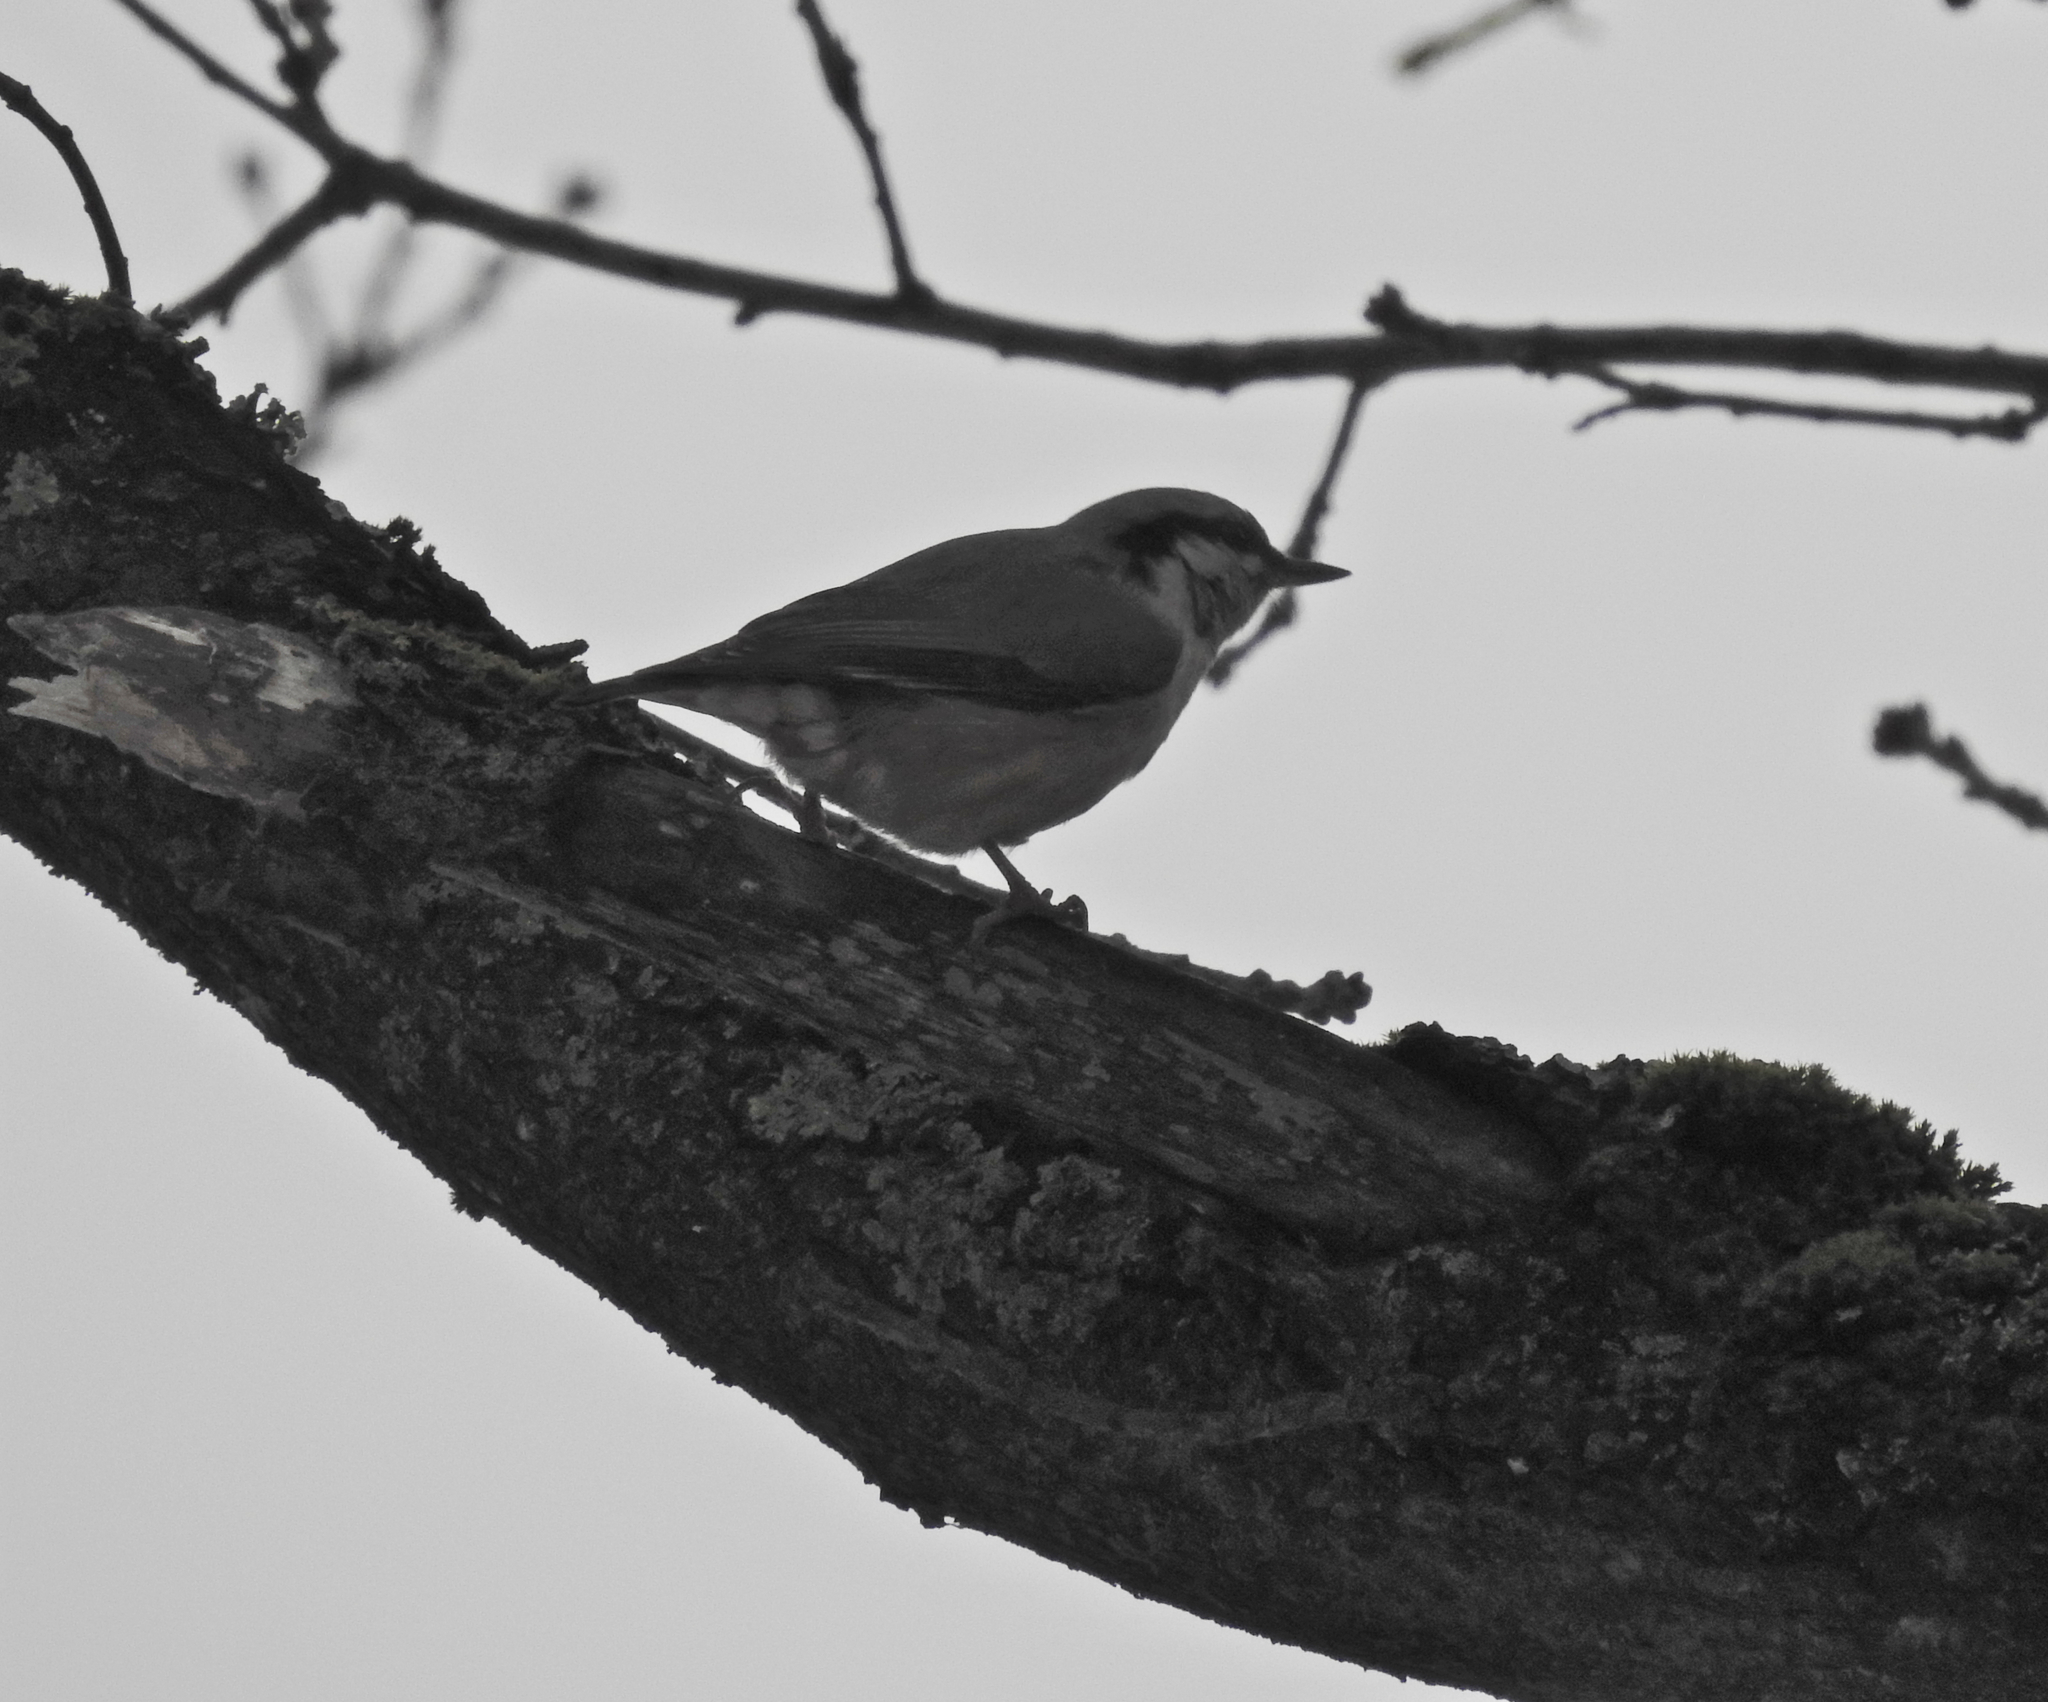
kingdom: Animalia
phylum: Chordata
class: Aves
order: Passeriformes
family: Sittidae
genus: Sitta
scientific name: Sitta europaea
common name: Eurasian nuthatch
